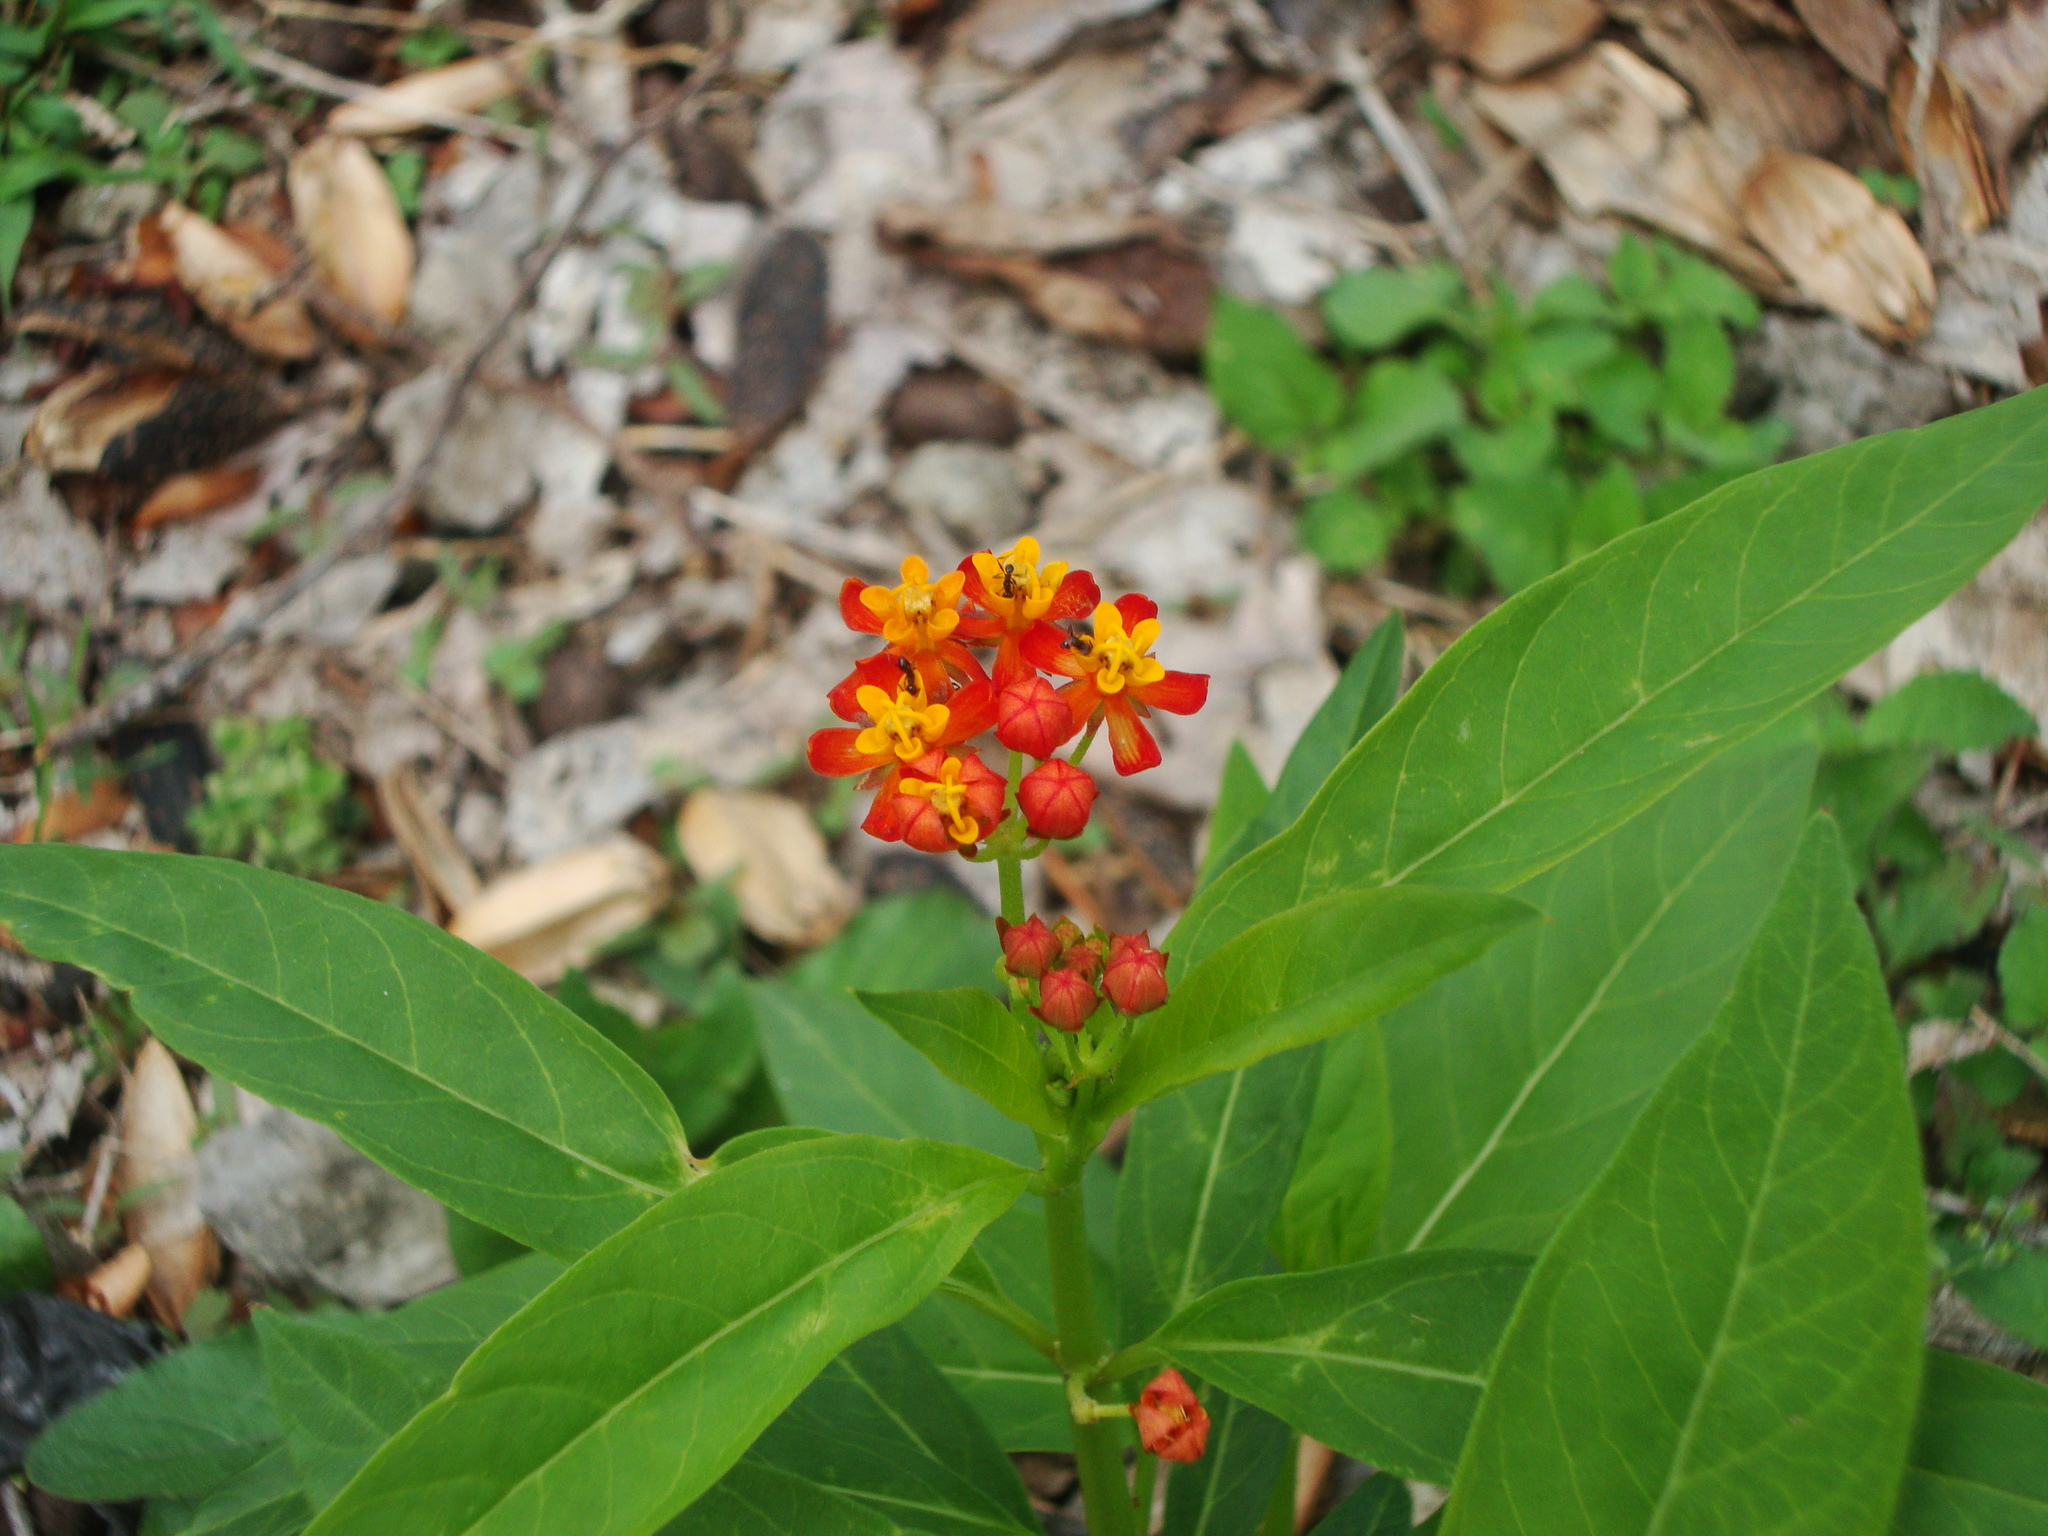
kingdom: Plantae
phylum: Tracheophyta
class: Magnoliopsida
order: Gentianales
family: Apocynaceae
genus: Asclepias
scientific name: Asclepias curassavica
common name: Bloodflower
